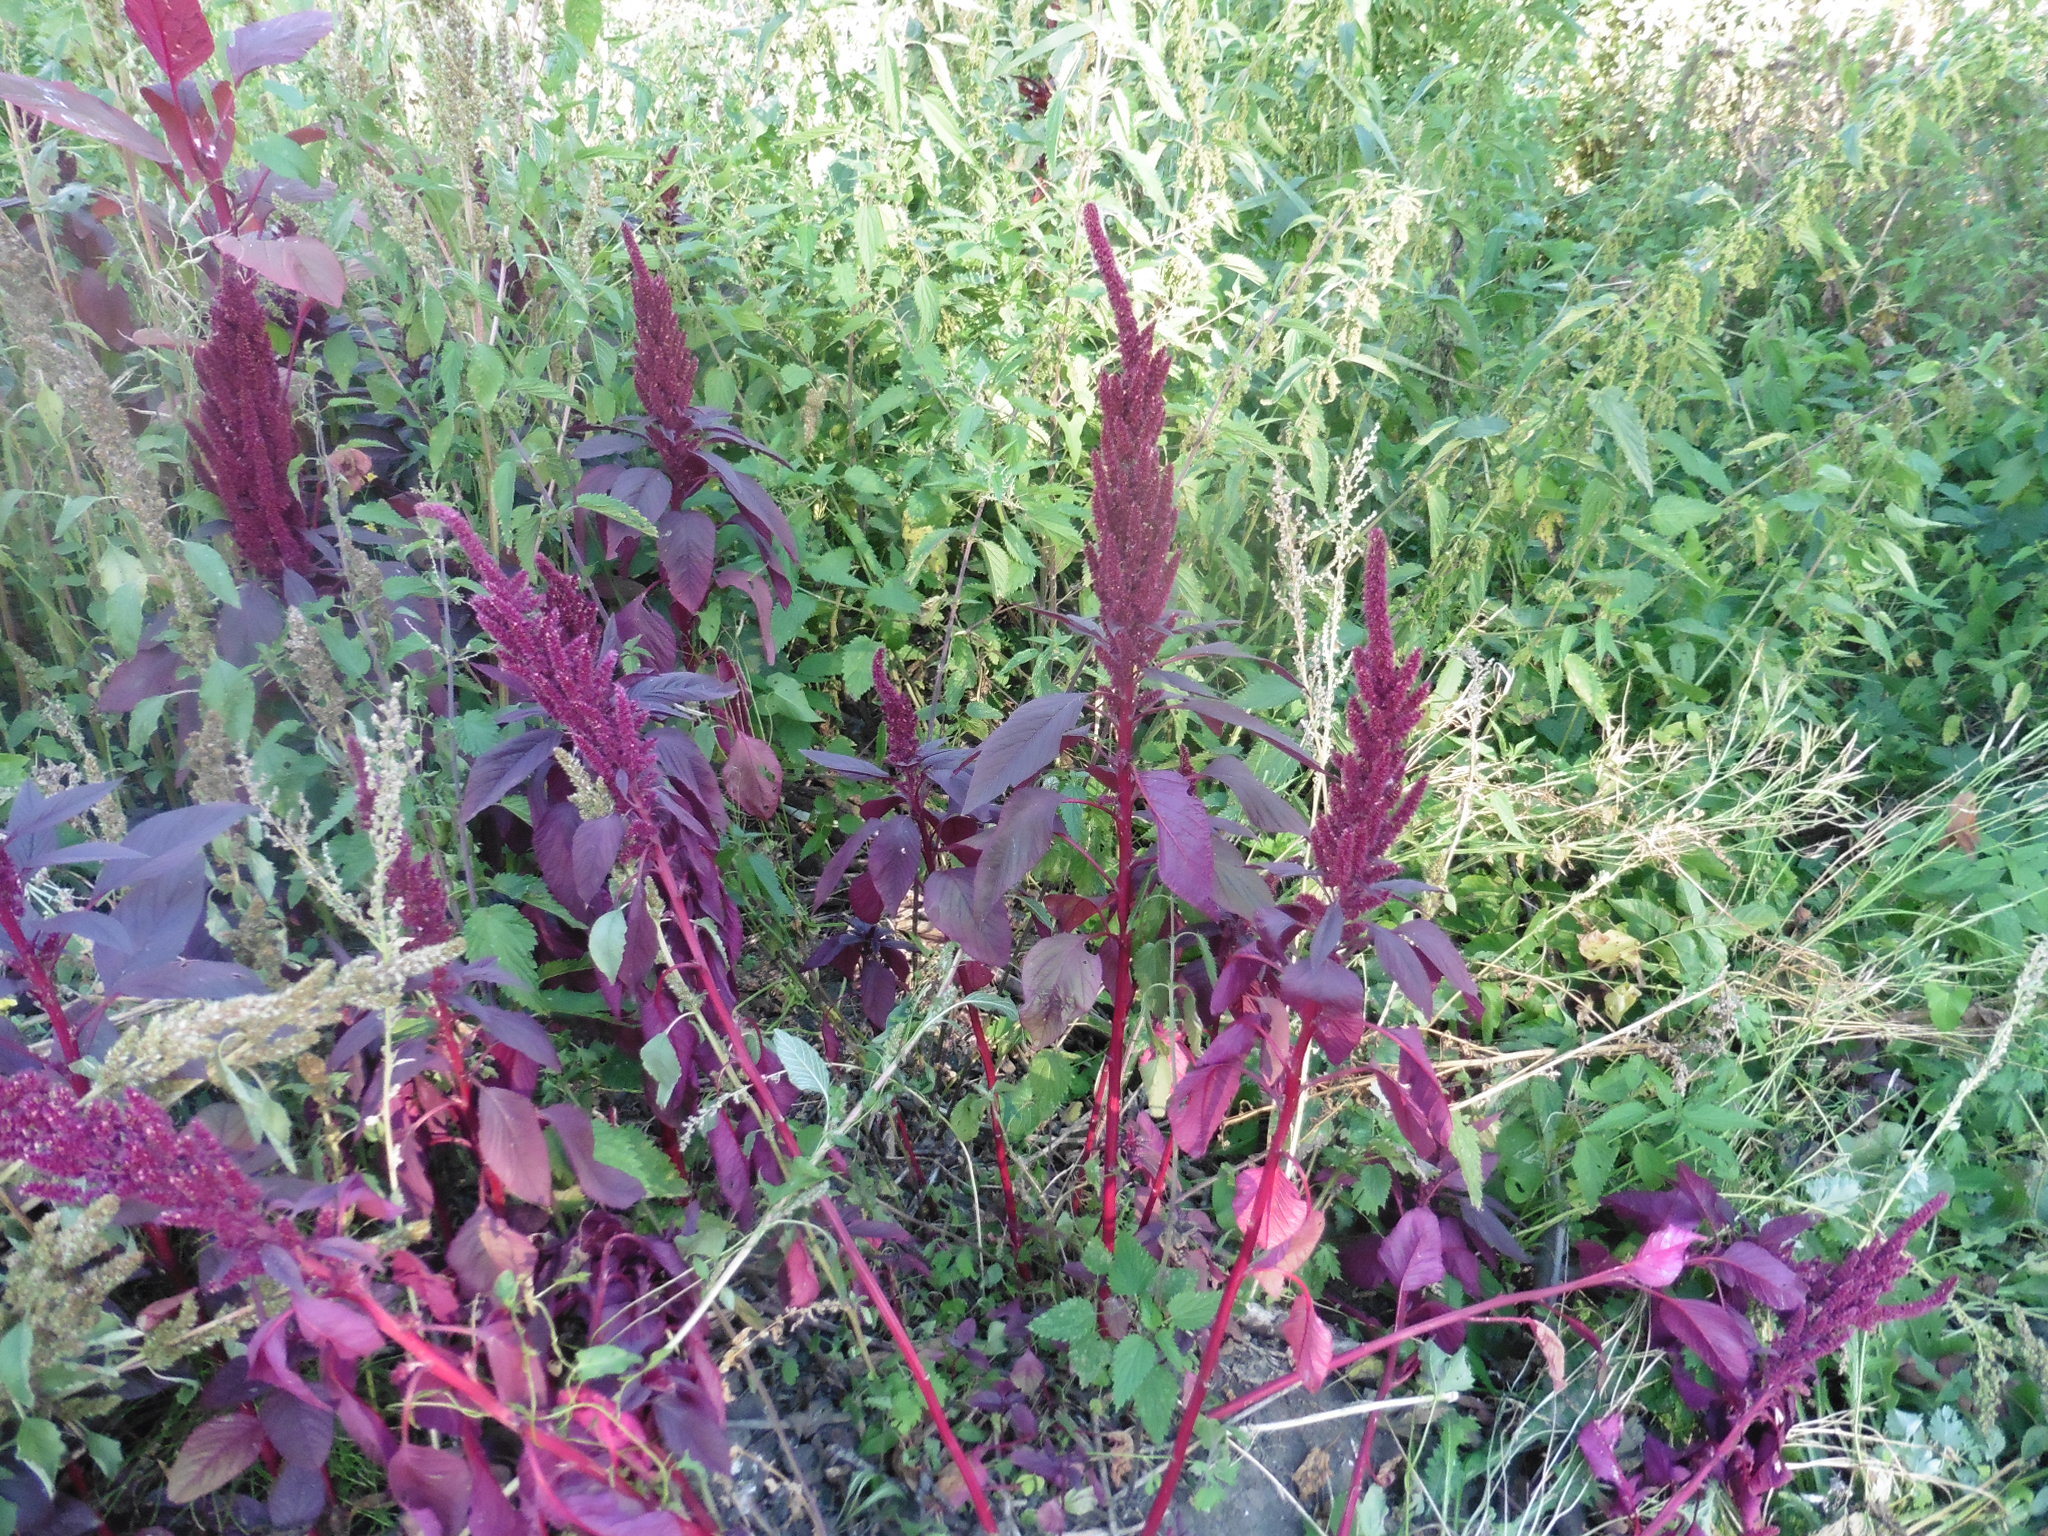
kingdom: Plantae
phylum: Tracheophyta
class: Magnoliopsida
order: Caryophyllales
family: Amaranthaceae
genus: Amaranthus
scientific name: Amaranthus cruentus
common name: Purple amaranth
